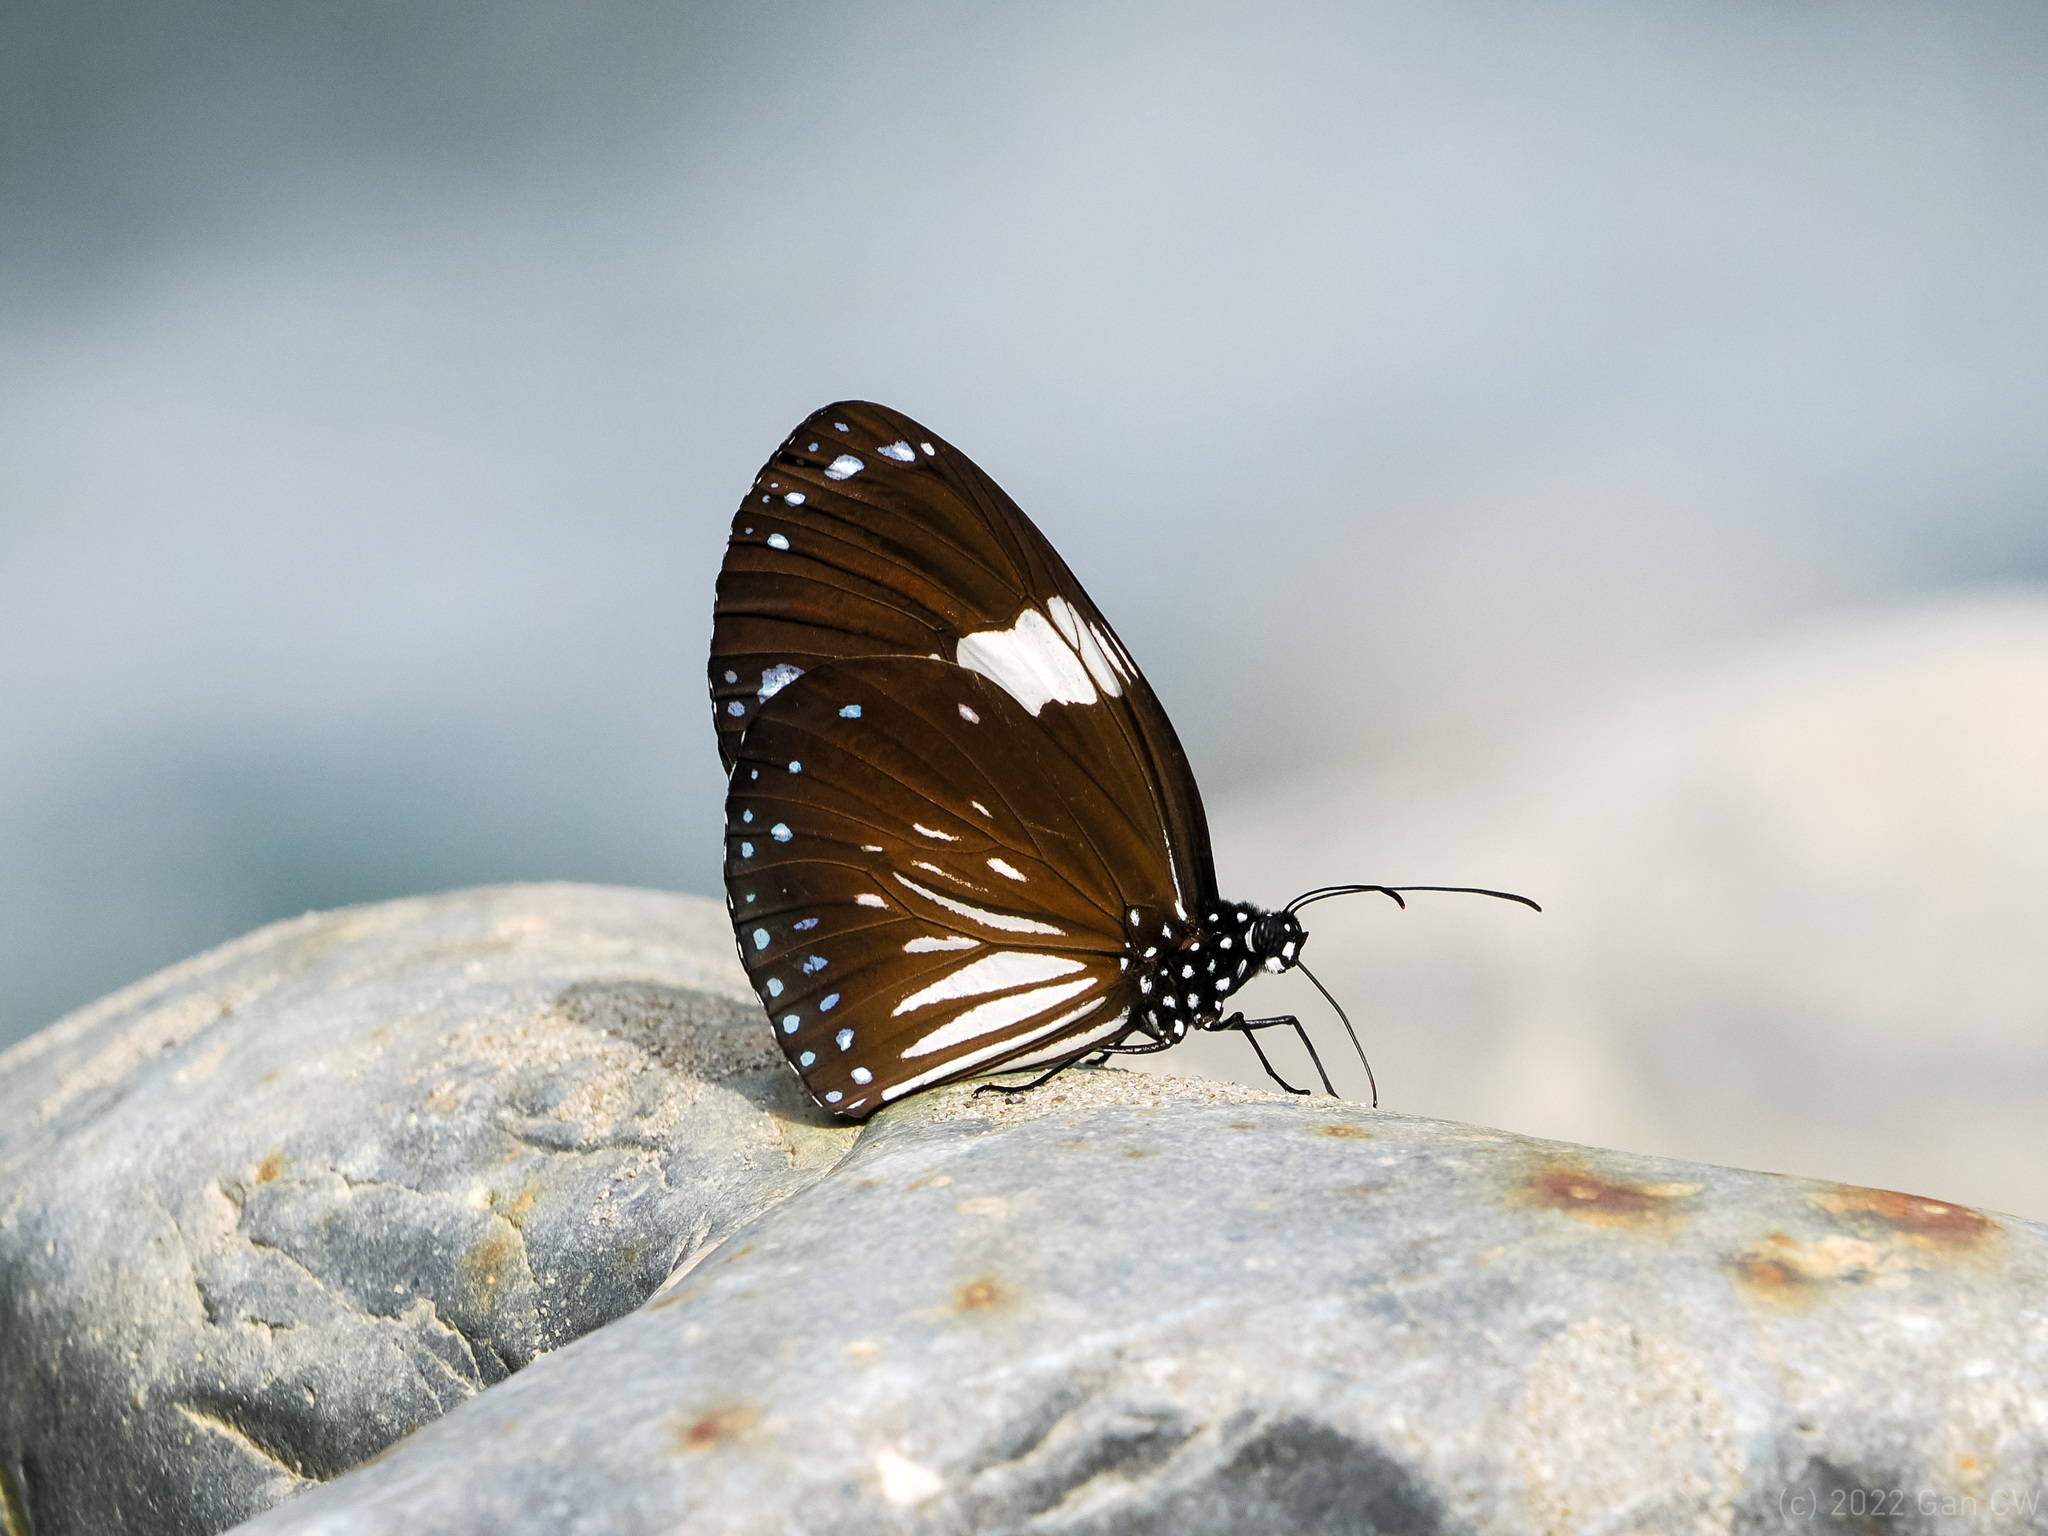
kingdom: Animalia
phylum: Arthropoda
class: Insecta
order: Lepidoptera
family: Nymphalidae
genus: Euploea
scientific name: Euploea radamanthus
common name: Magpie crow butterfly
